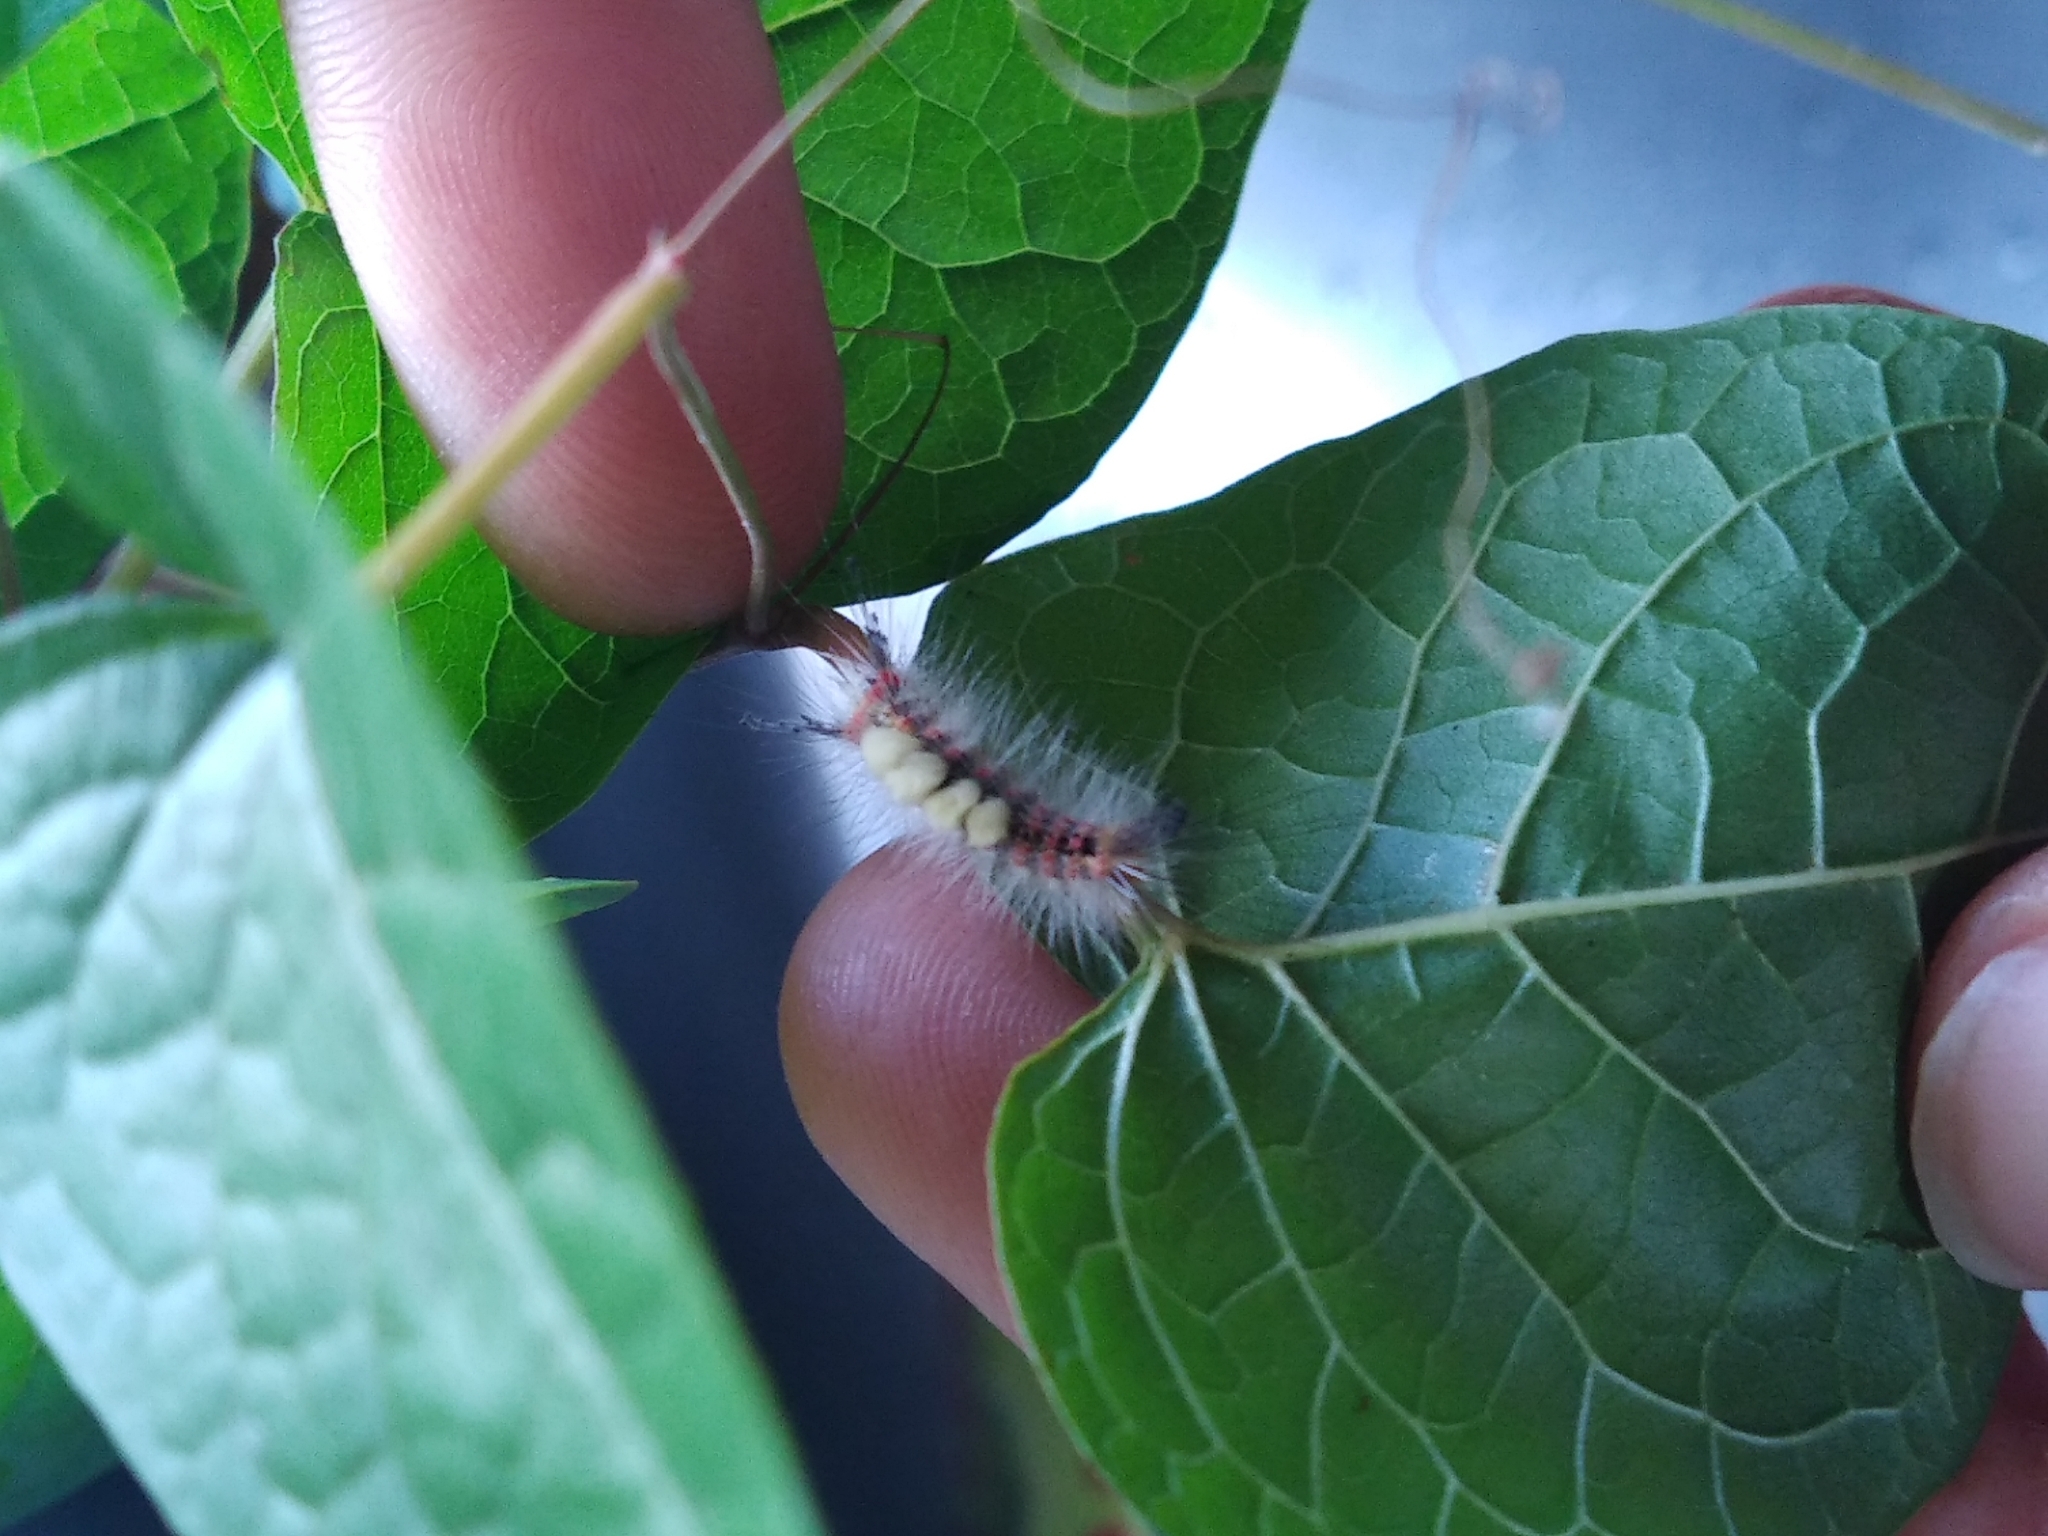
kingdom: Animalia
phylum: Arthropoda
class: Insecta
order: Lepidoptera
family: Erebidae
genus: Orgyia
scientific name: Orgyia antiqua
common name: Vapourer
